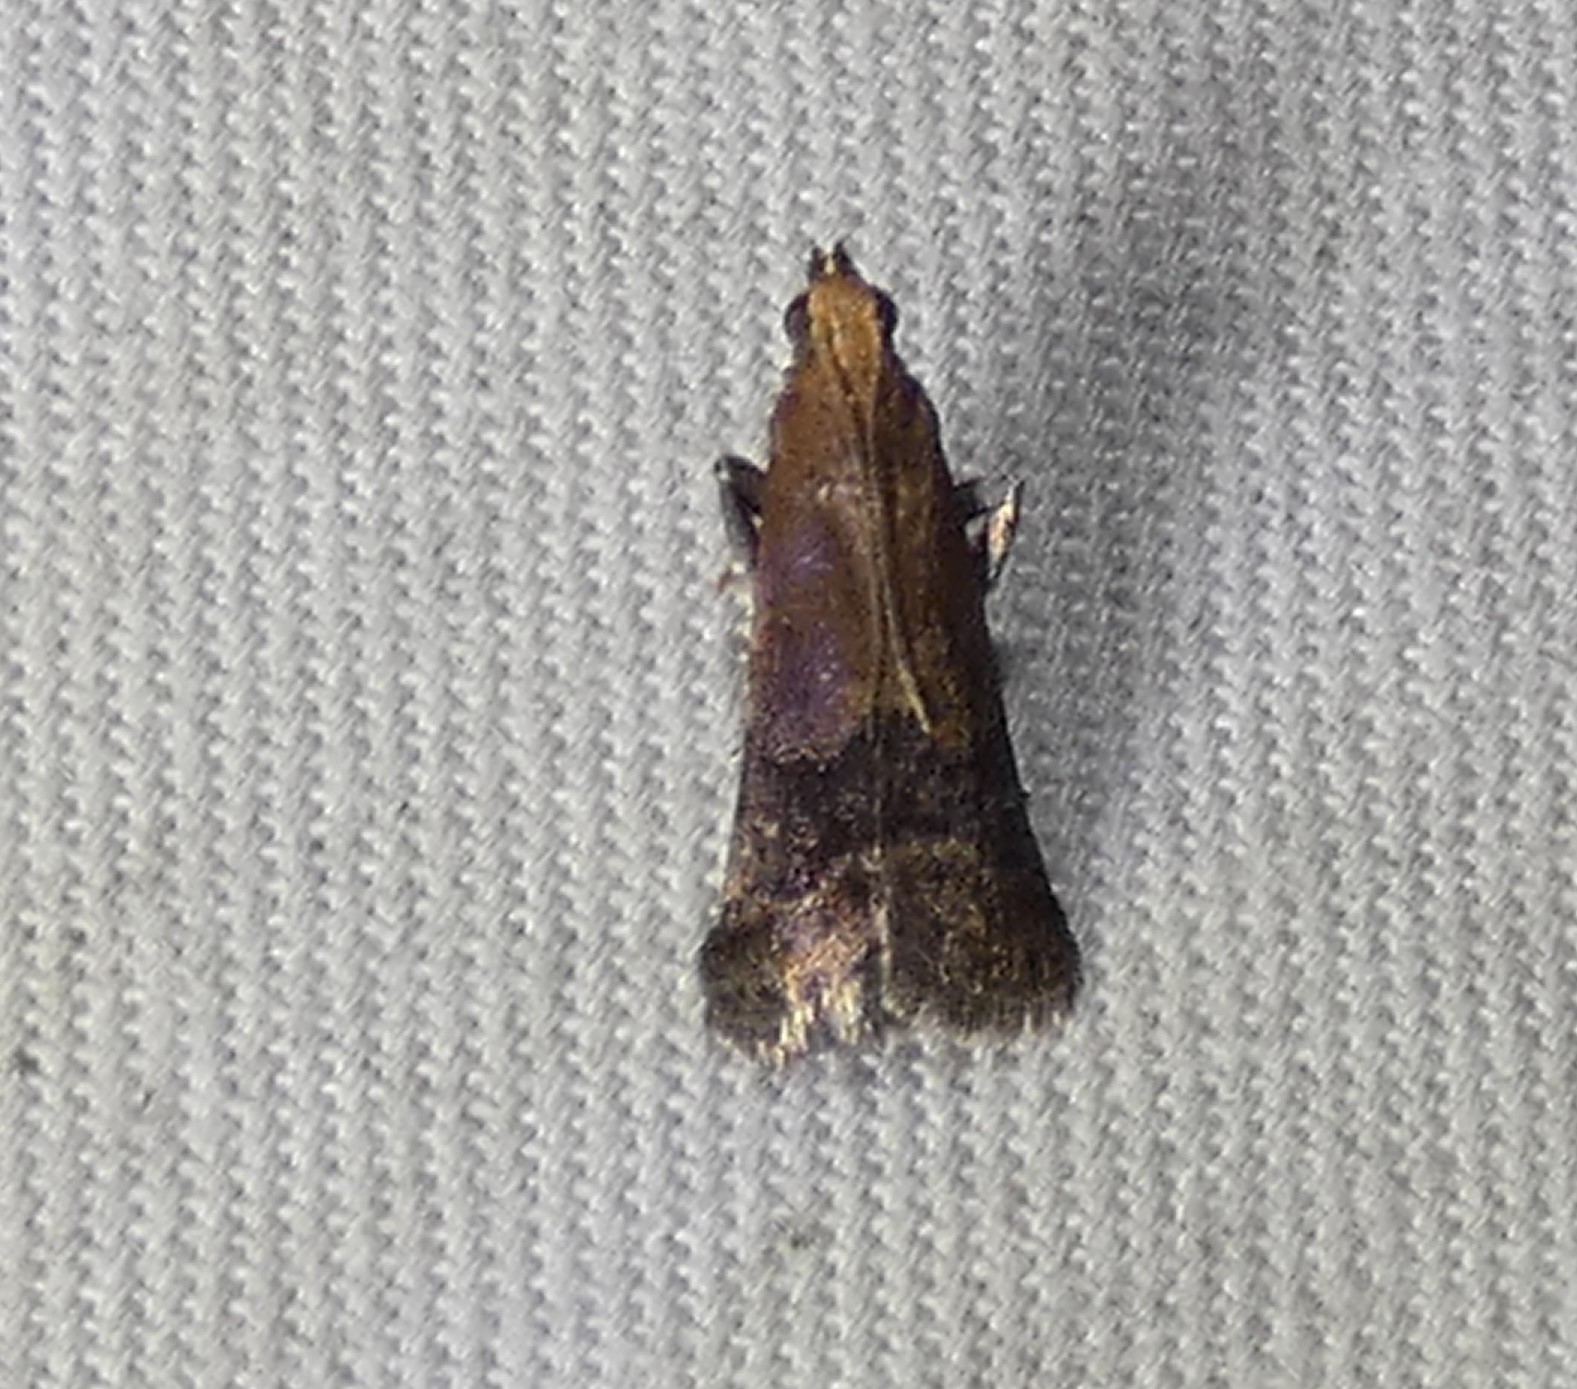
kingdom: Animalia
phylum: Arthropoda
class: Insecta
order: Lepidoptera
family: Pyralidae
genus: Eulogia
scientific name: Eulogia ochrifrontella
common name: Broad-banded eulogia moth
